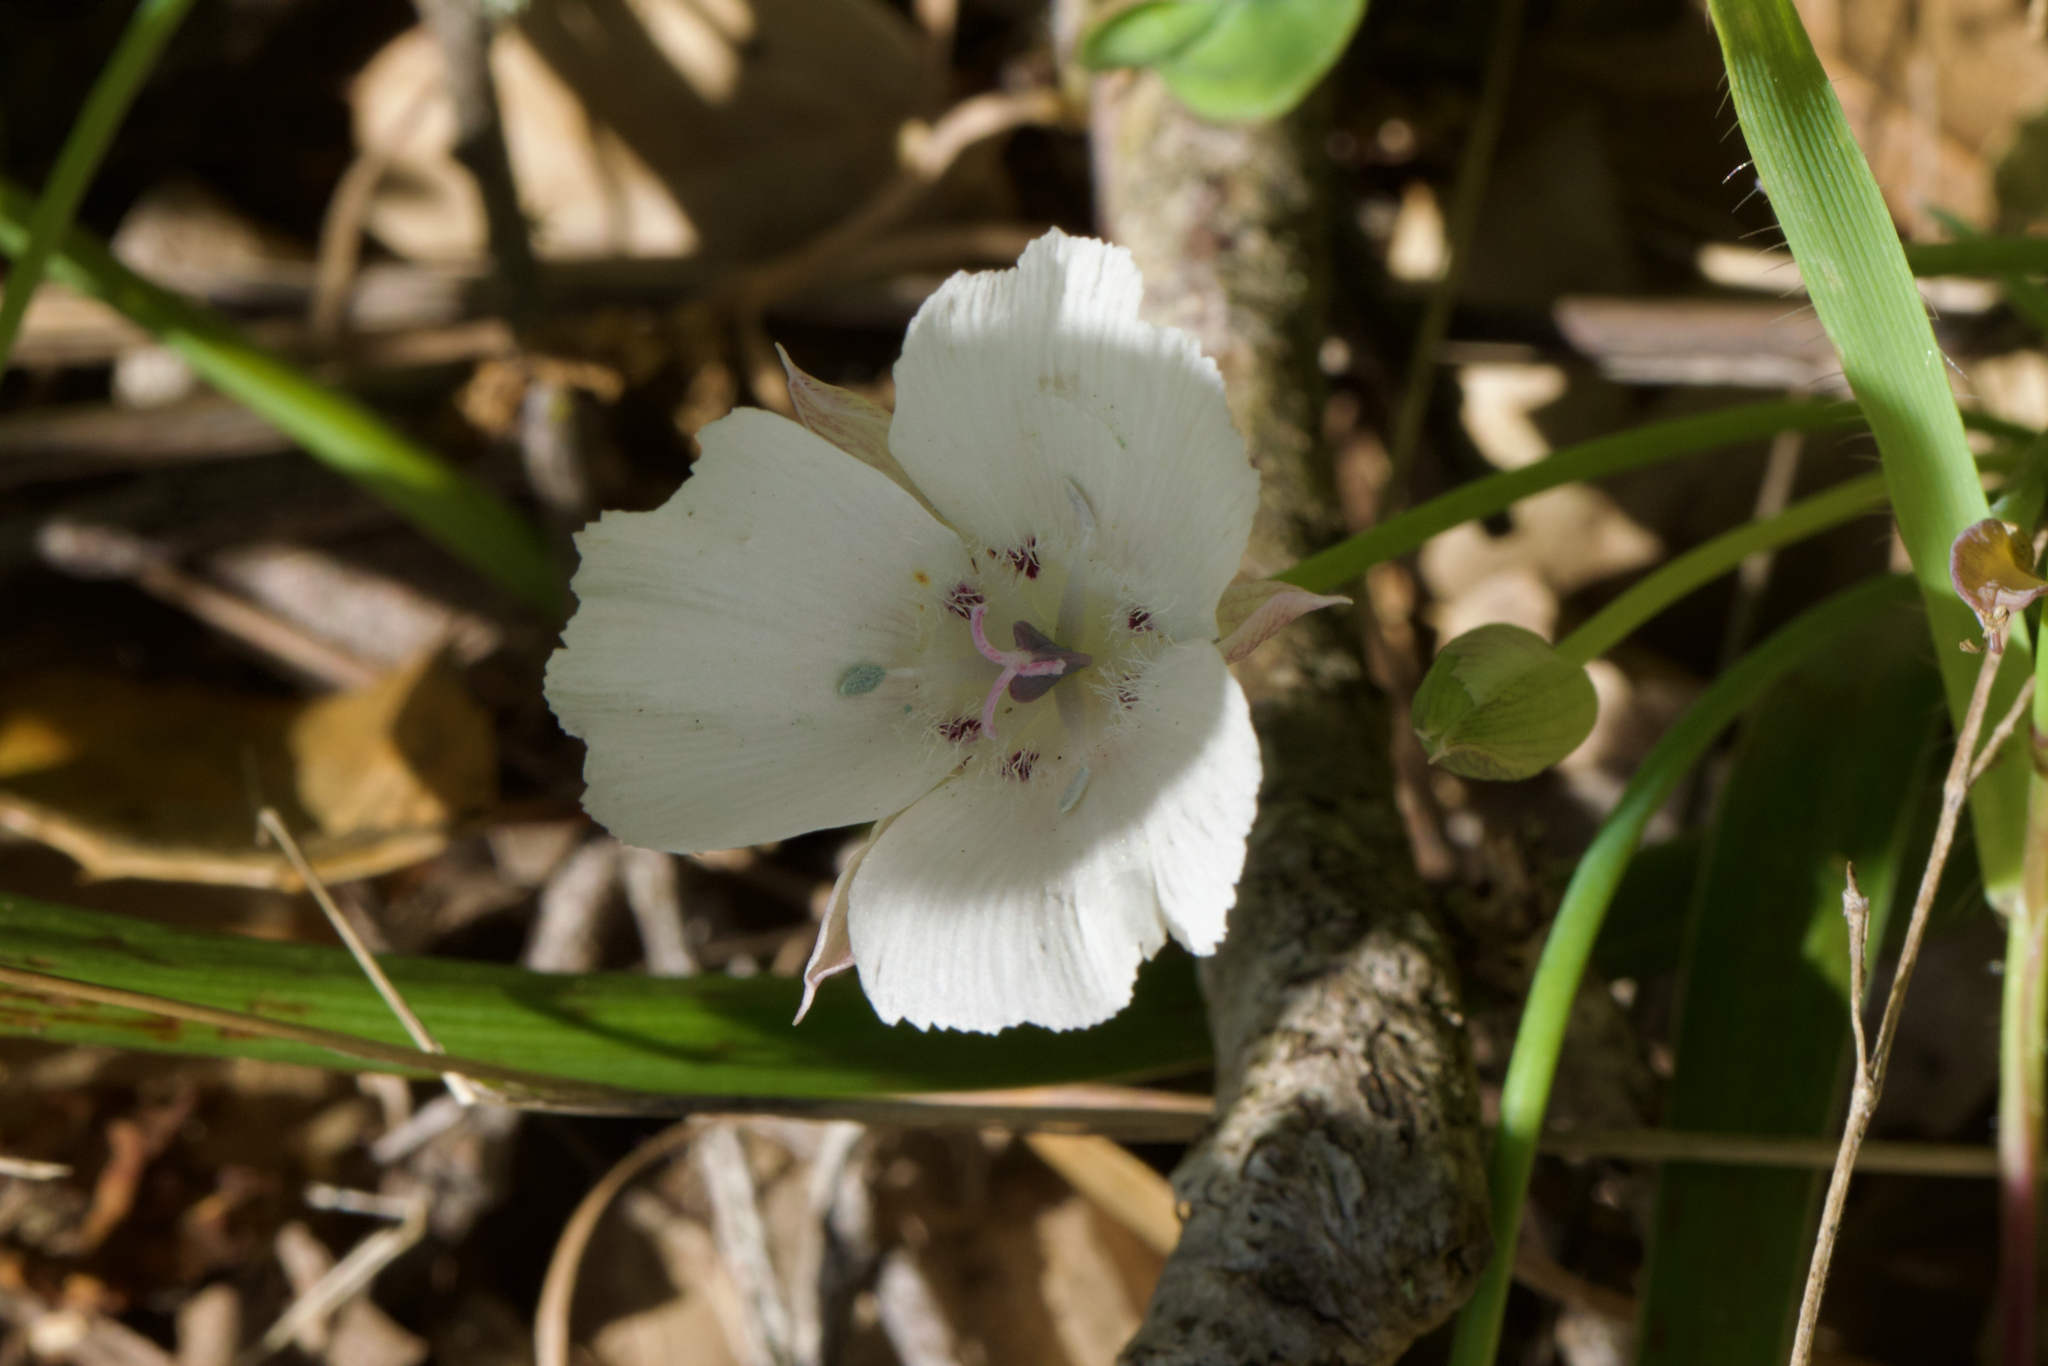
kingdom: Plantae
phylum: Tracheophyta
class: Liliopsida
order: Liliales
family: Liliaceae
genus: Calochortus
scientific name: Calochortus umbellatus
